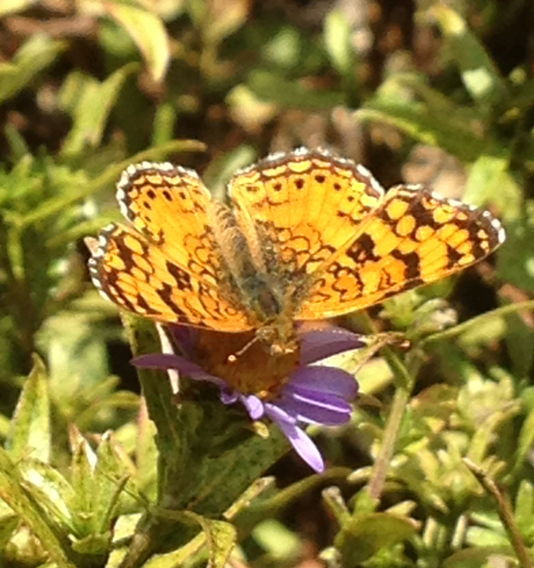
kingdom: Animalia
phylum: Arthropoda
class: Insecta
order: Lepidoptera
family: Nymphalidae
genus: Eresia
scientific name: Eresia aveyrona
